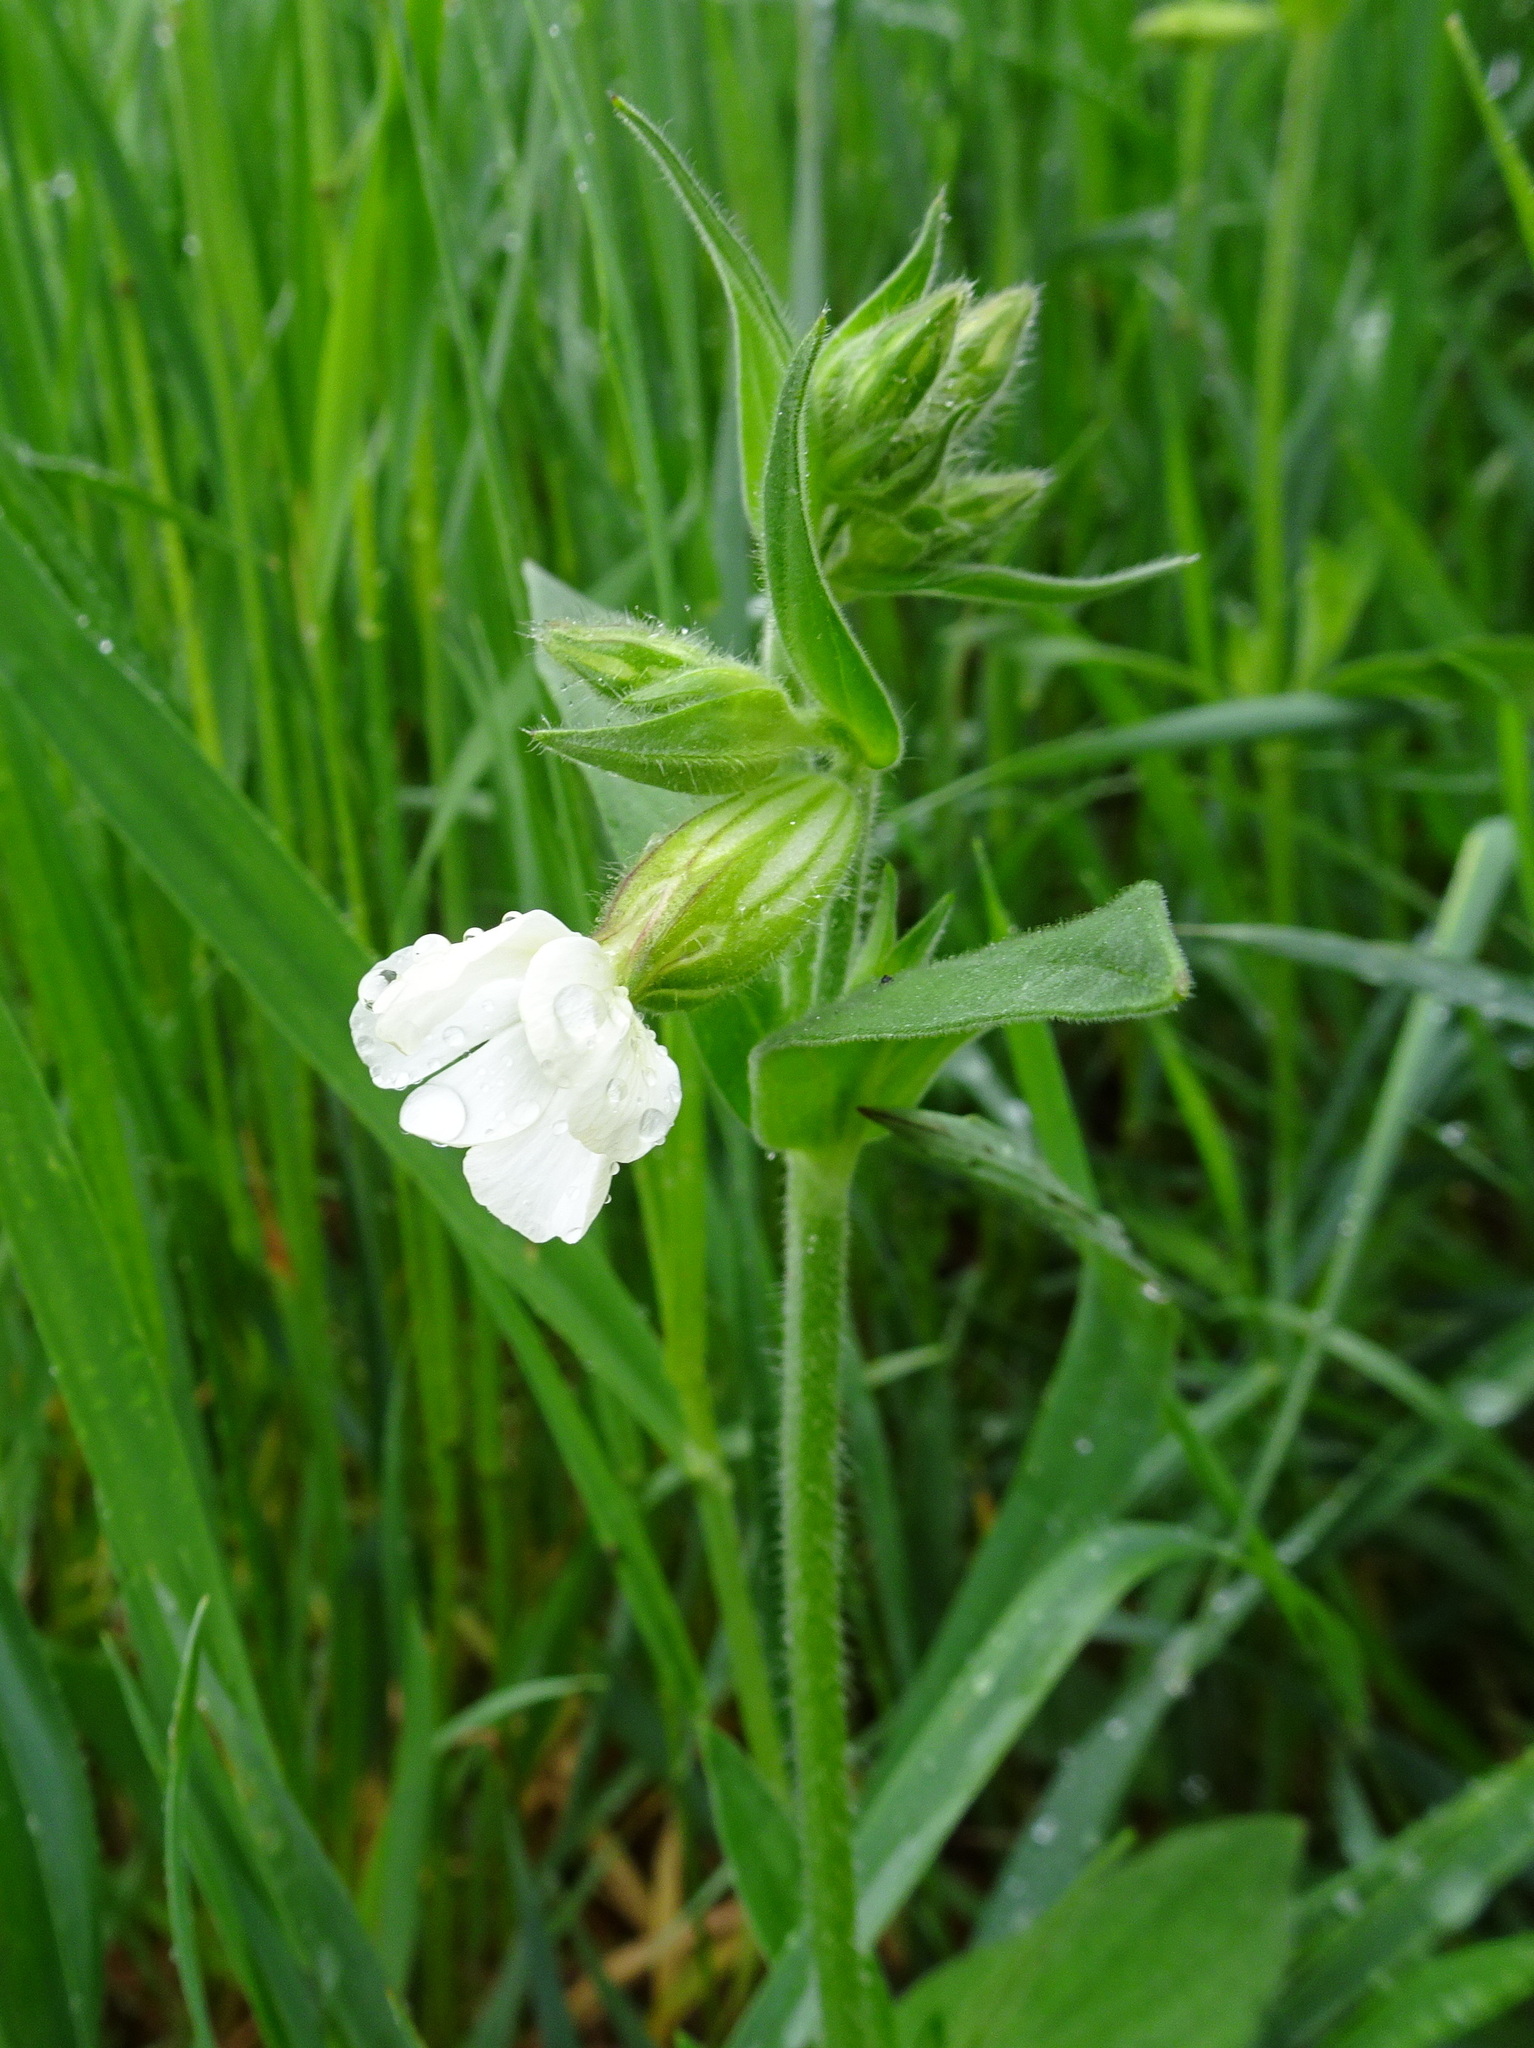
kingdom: Plantae
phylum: Tracheophyta
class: Magnoliopsida
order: Caryophyllales
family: Caryophyllaceae
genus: Silene
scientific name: Silene latifolia
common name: White campion
